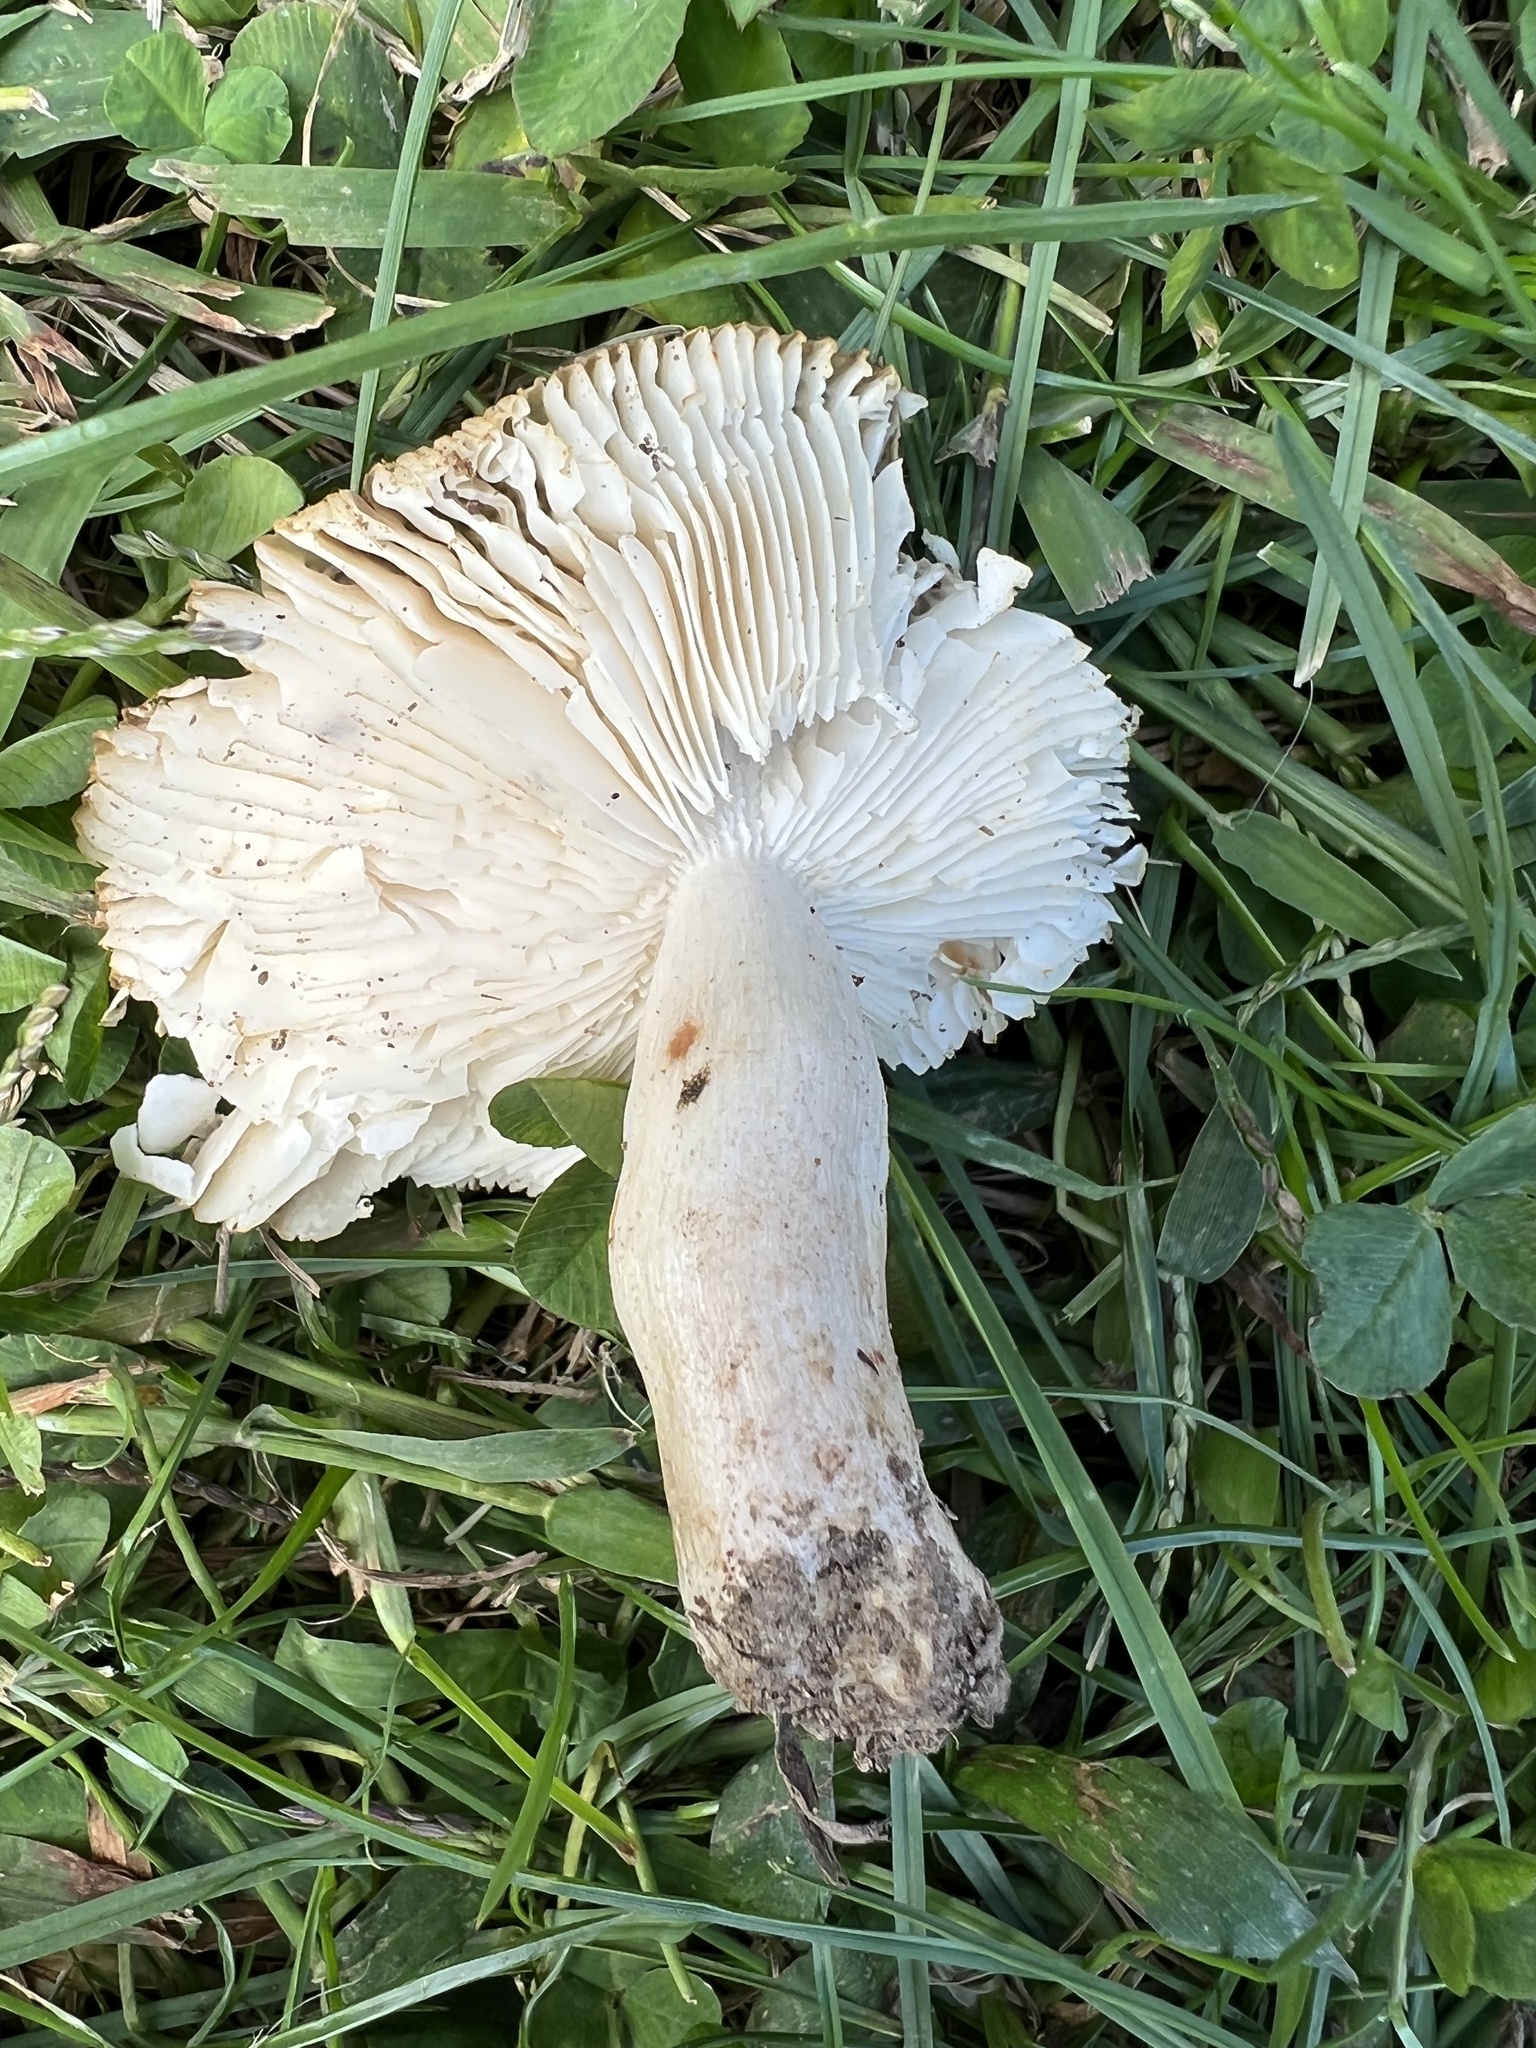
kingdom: Fungi
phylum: Basidiomycota
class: Agaricomycetes
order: Russulales
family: Russulaceae
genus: Russula
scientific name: Russula amerorecondita
